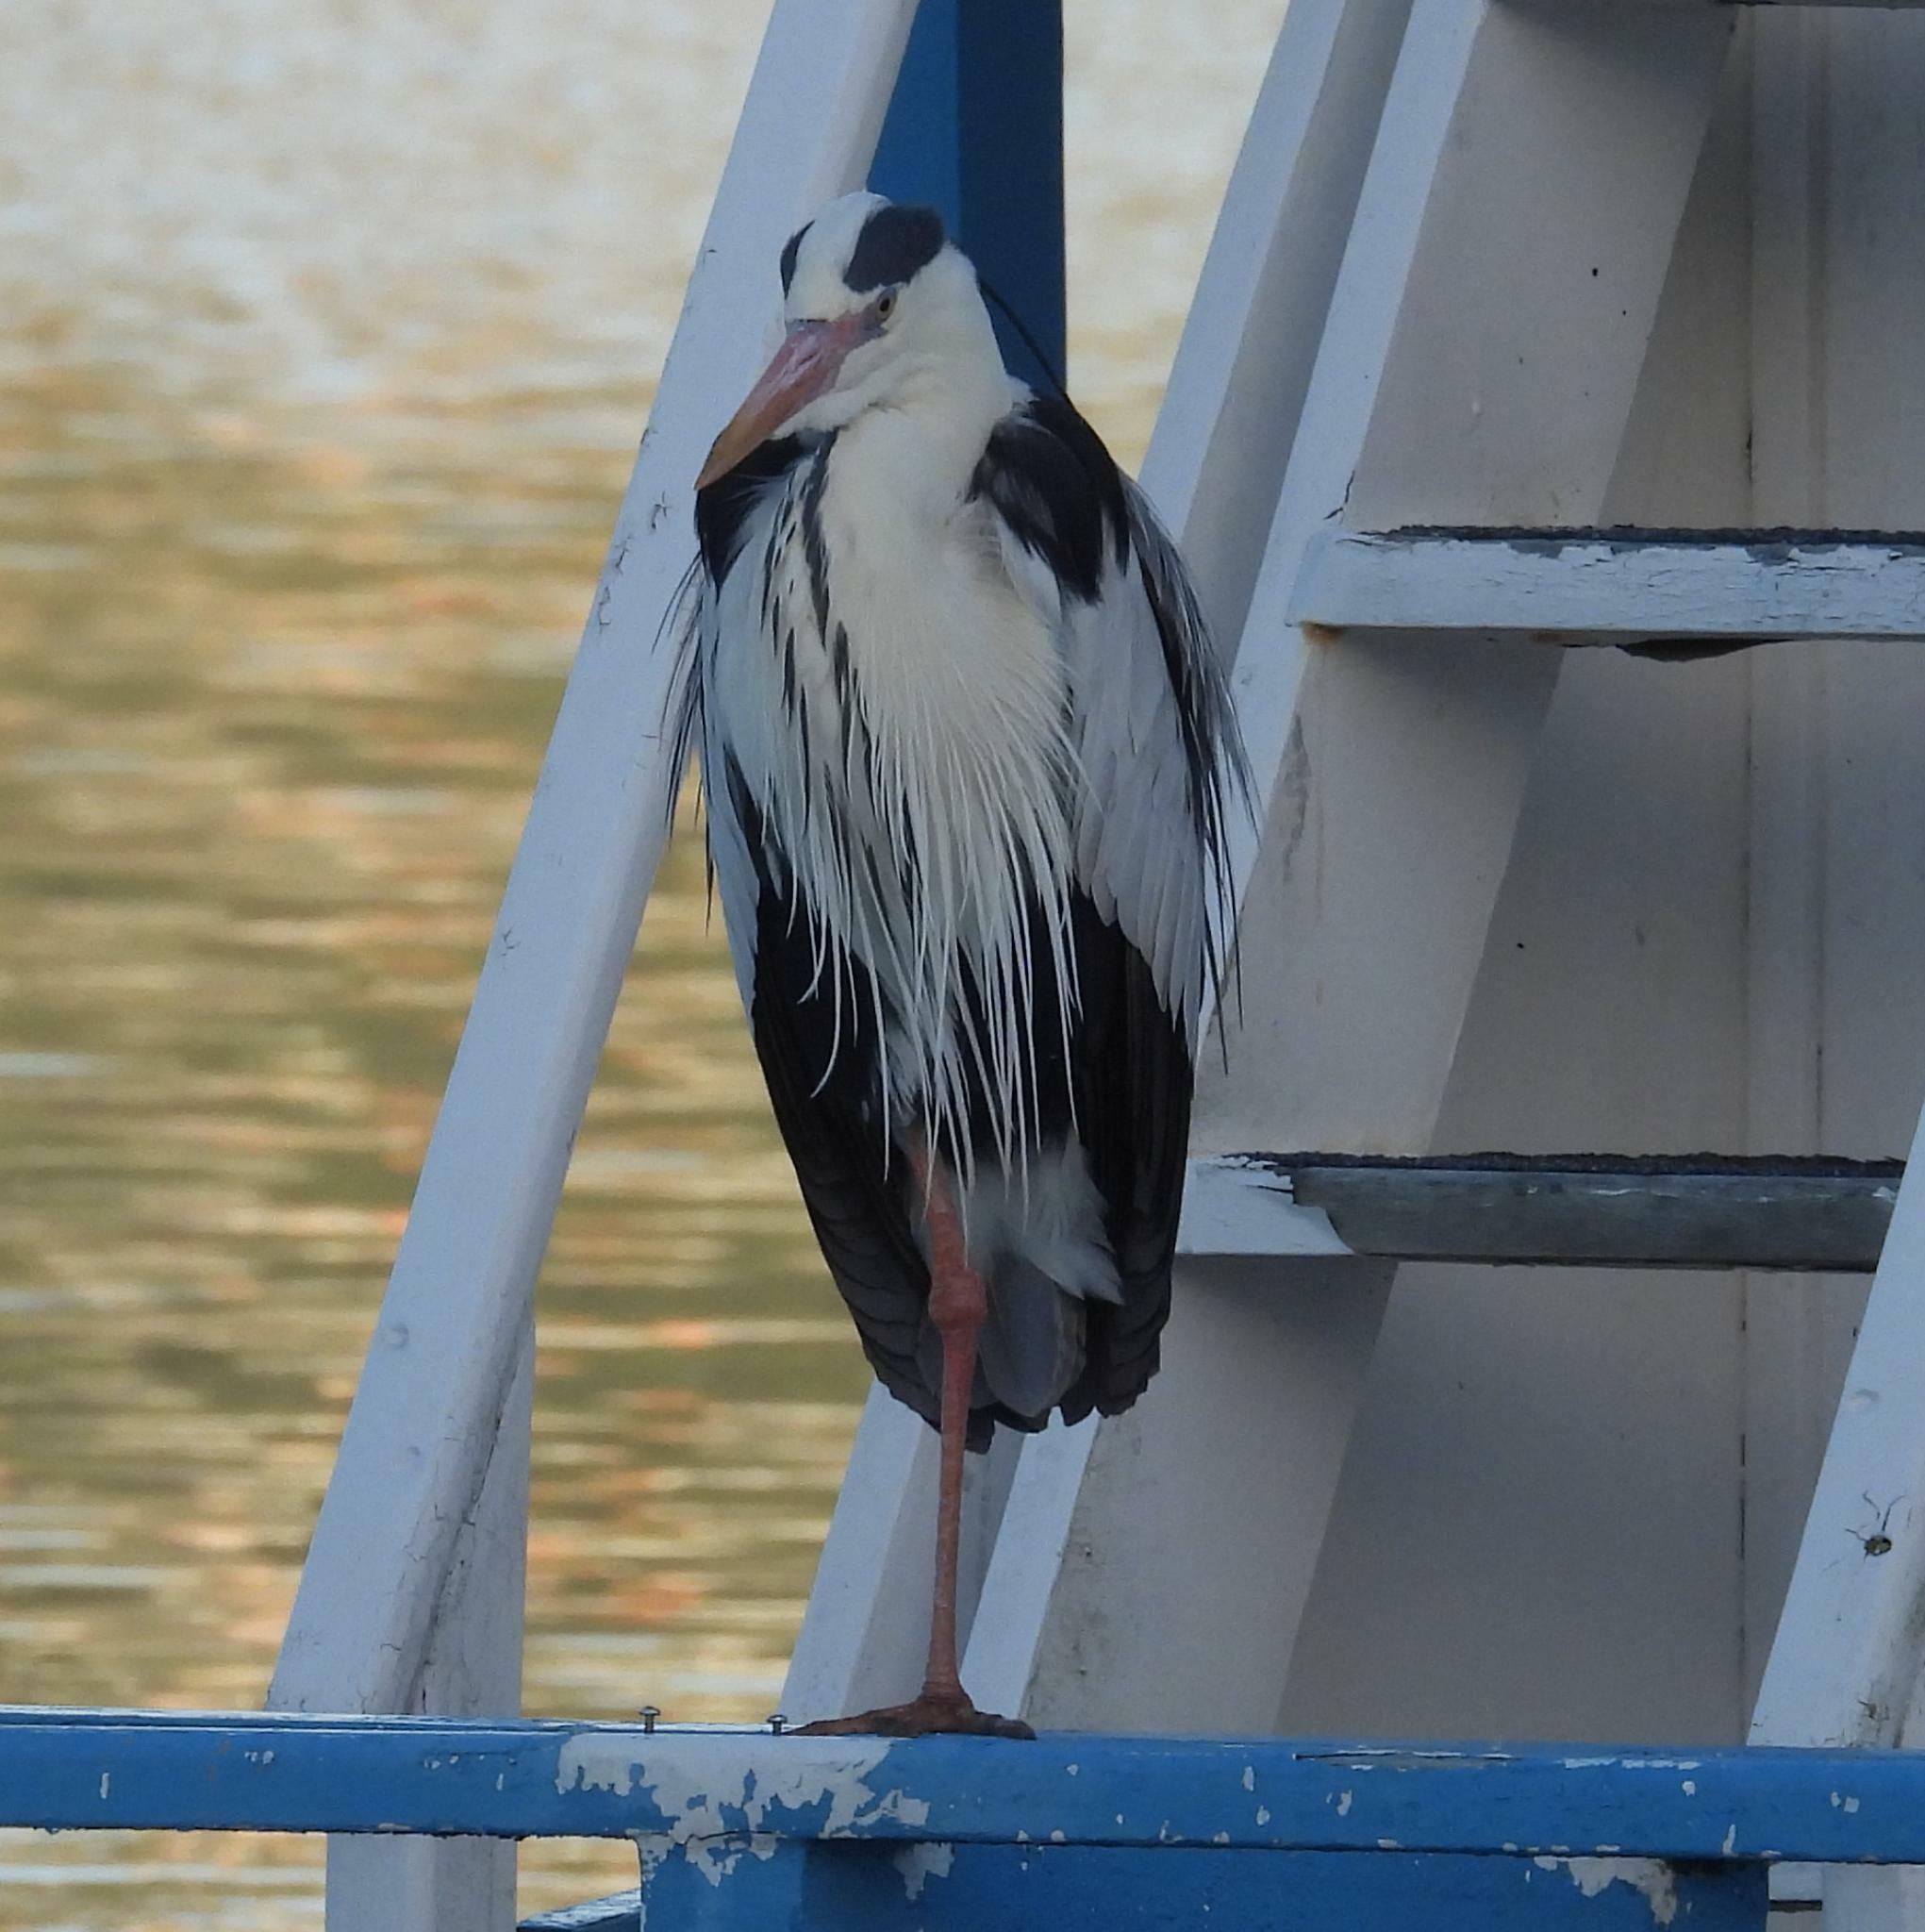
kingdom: Animalia
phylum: Chordata
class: Aves
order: Pelecaniformes
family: Ardeidae
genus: Ardea
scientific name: Ardea cinerea
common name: Grey heron
